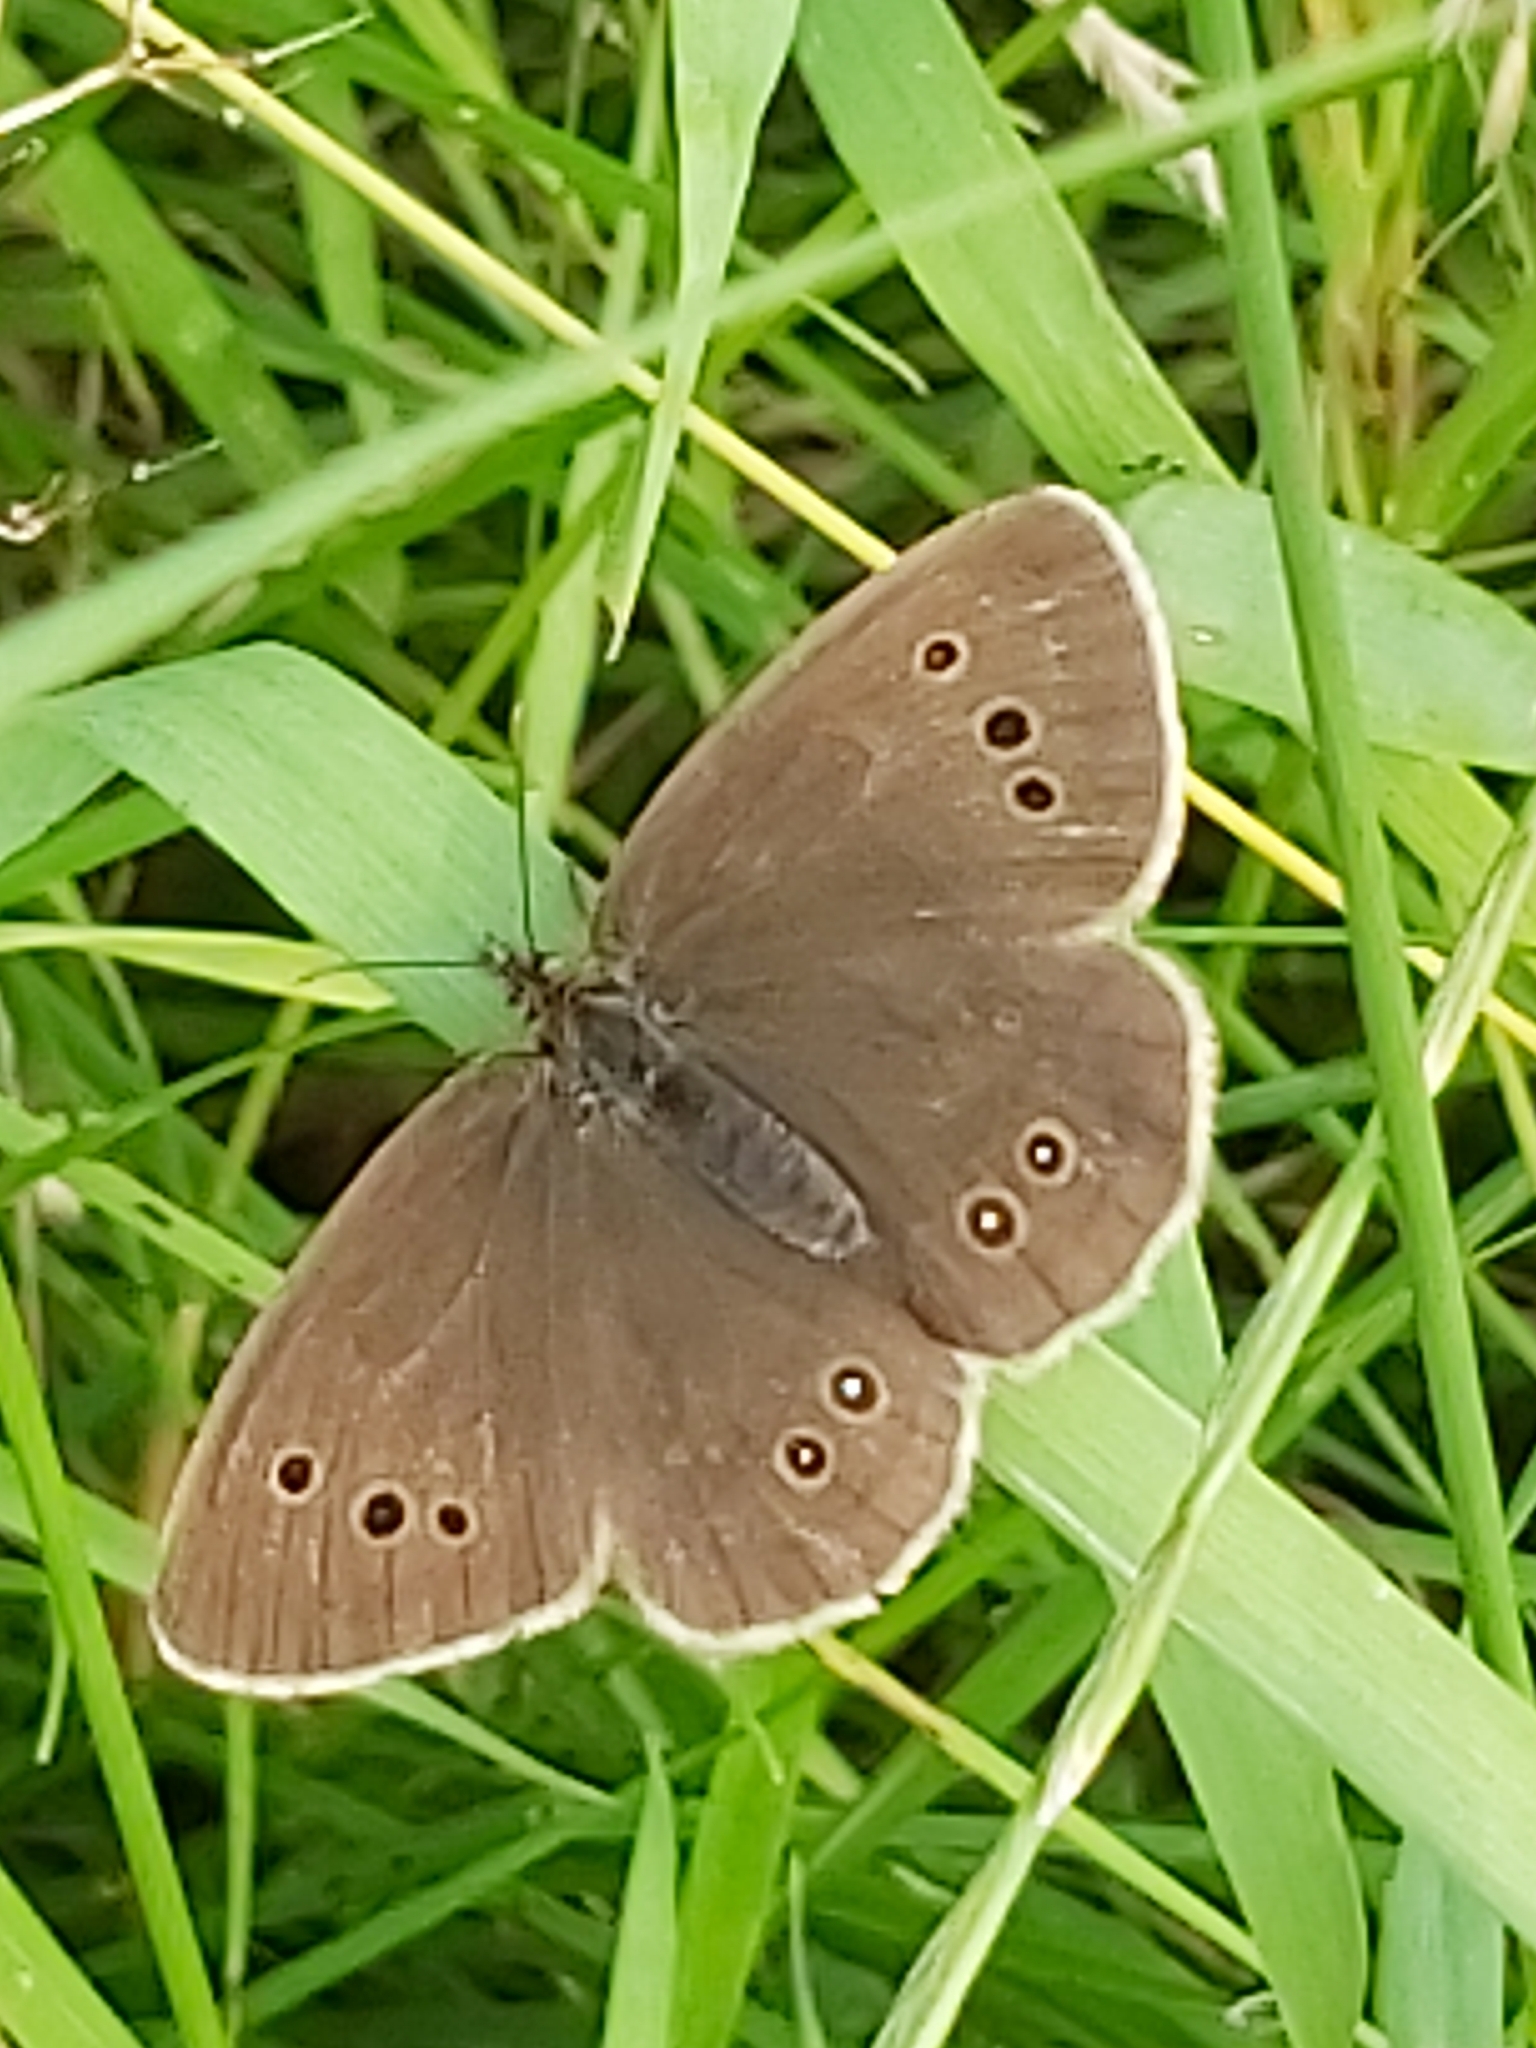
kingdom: Animalia
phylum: Arthropoda
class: Insecta
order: Lepidoptera
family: Nymphalidae
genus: Aphantopus
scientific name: Aphantopus hyperantus
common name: Ringlet
